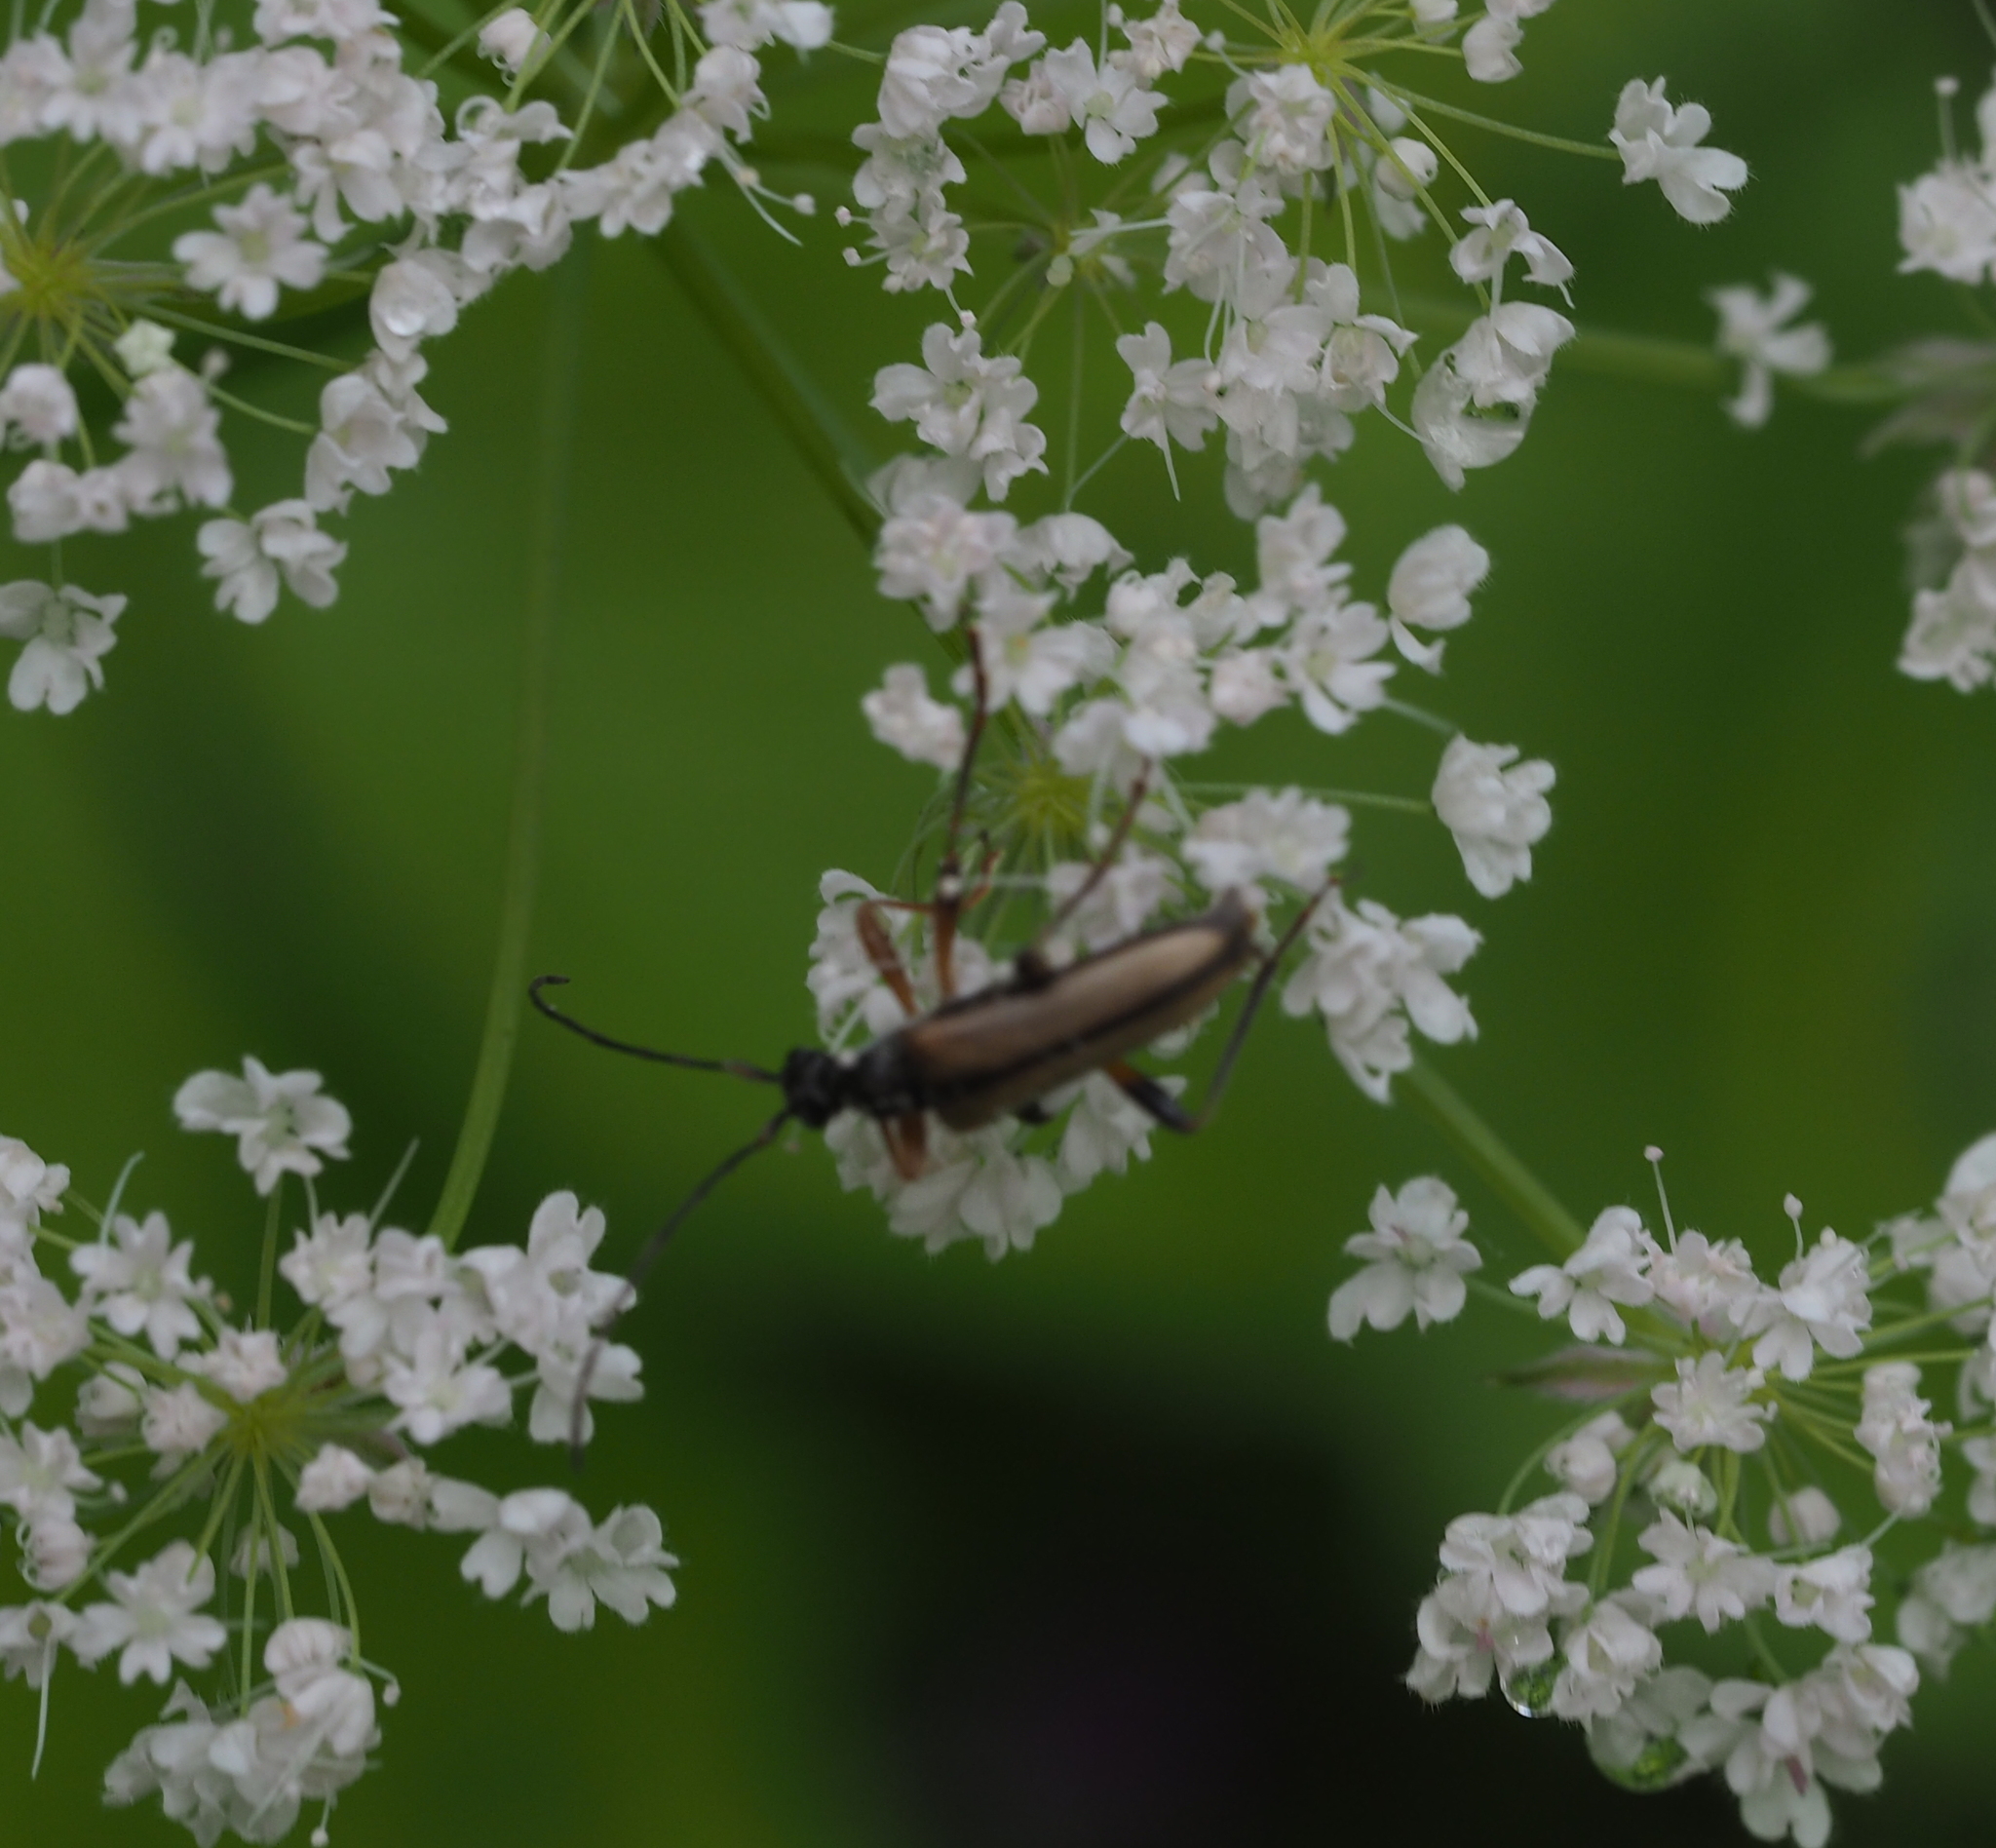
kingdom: Animalia
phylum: Arthropoda
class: Insecta
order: Coleoptera
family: Cerambycidae
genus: Pidonia
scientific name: Pidonia lurida
